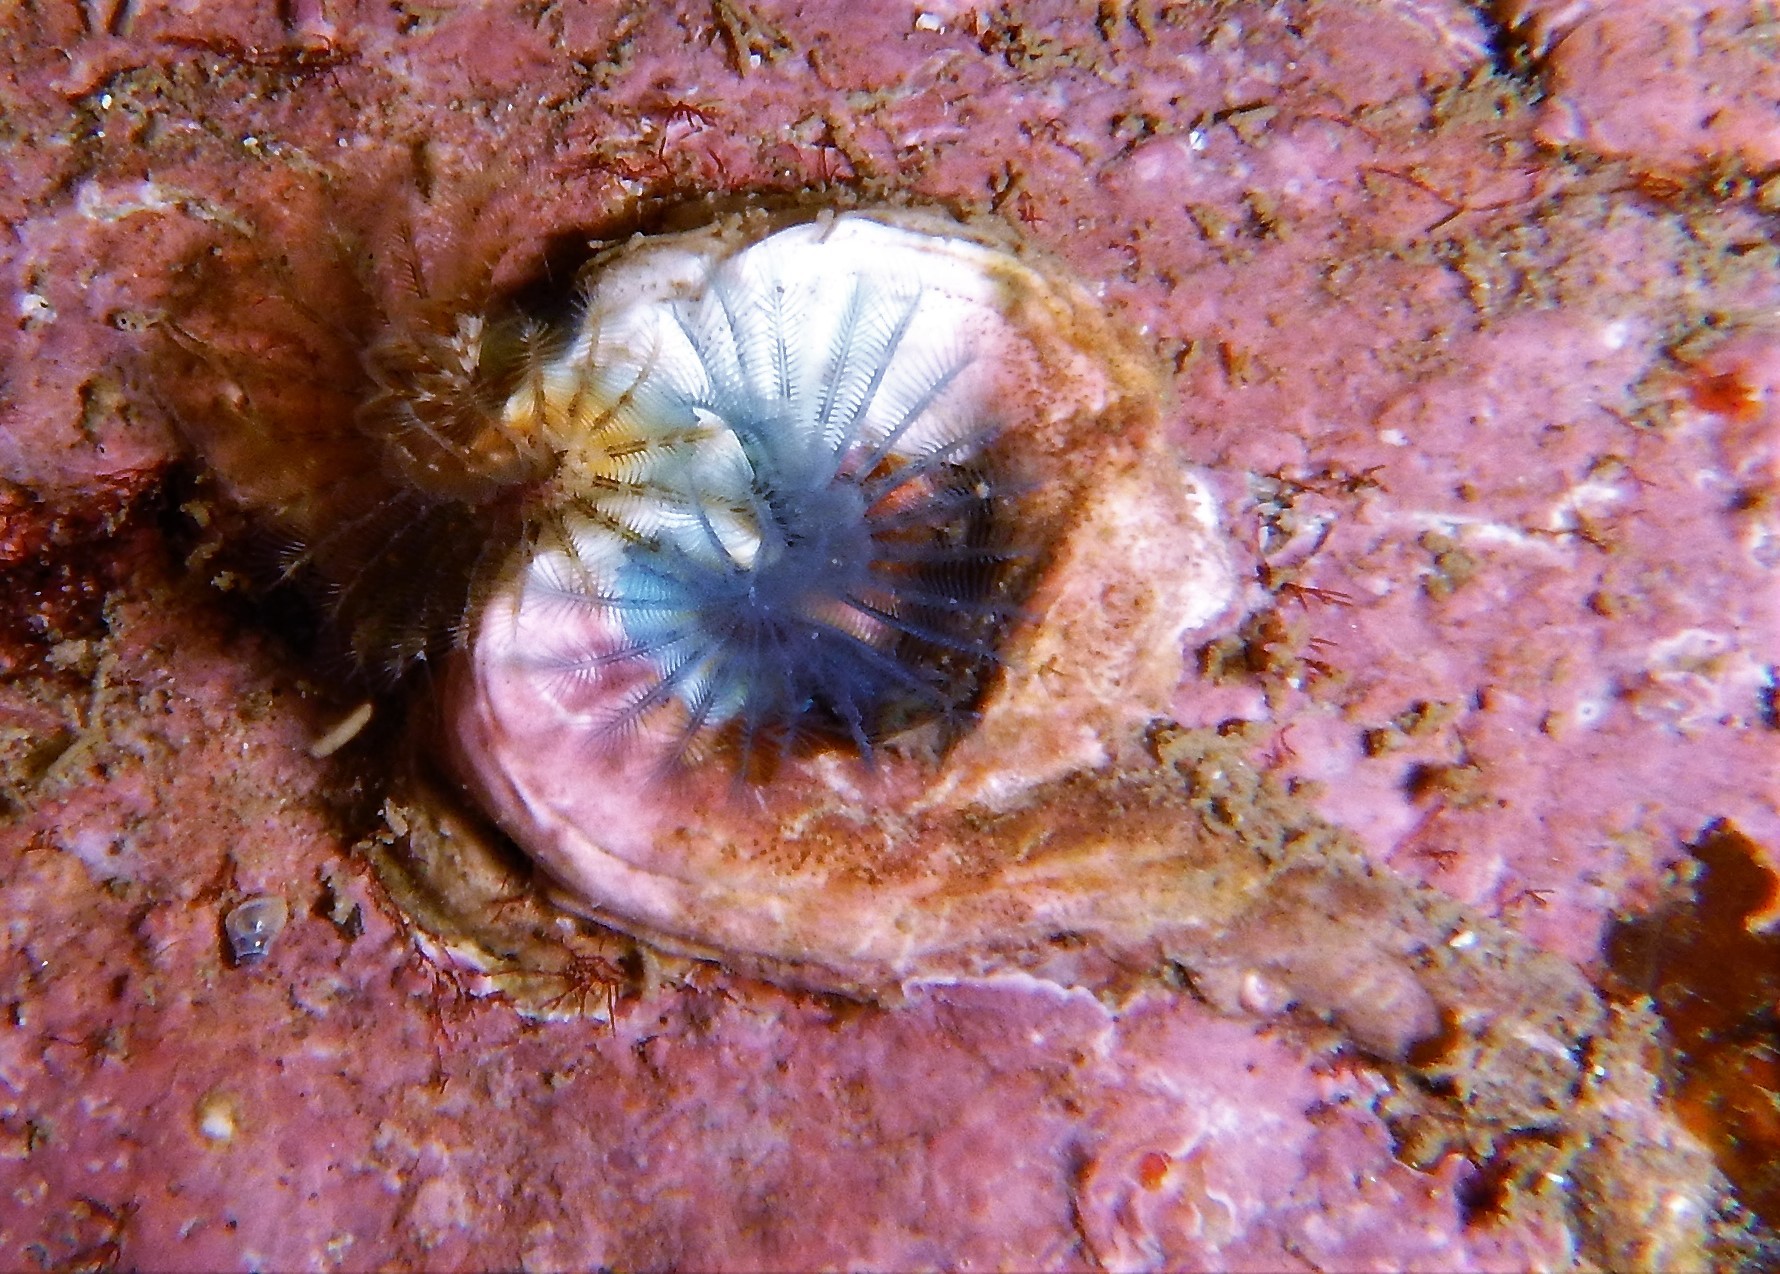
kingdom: Animalia
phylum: Annelida
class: Polychaeta
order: Sabellida
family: Serpulidae
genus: Spirobranchus
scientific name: Spirobranchus triqueter
